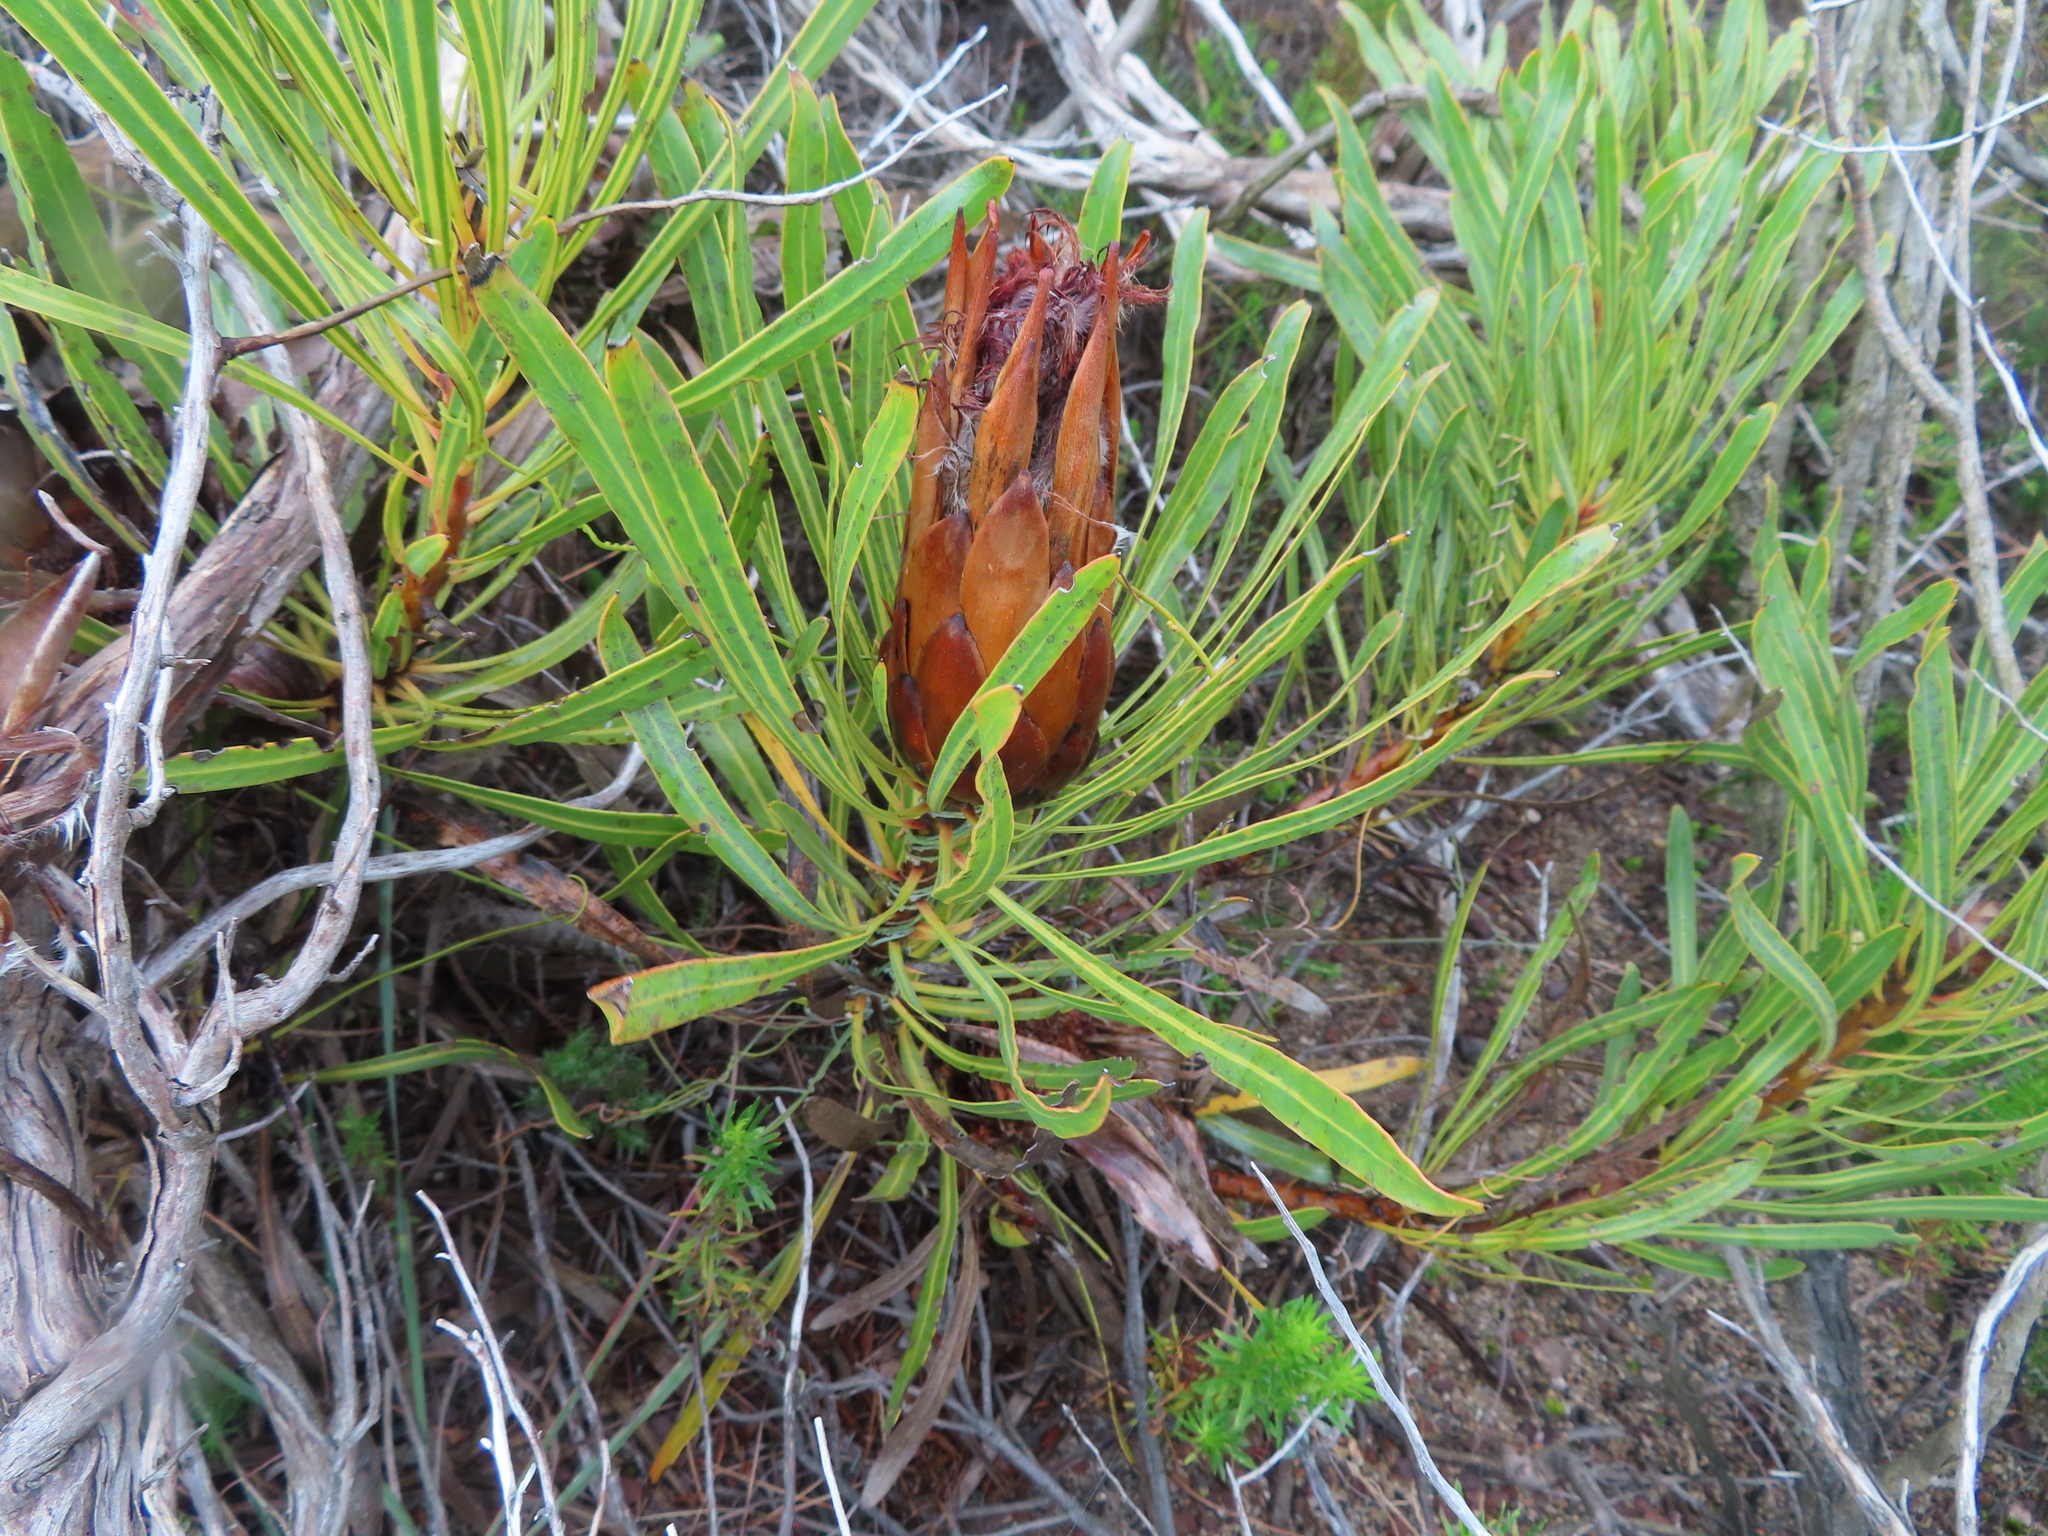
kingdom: Plantae
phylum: Tracheophyta
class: Magnoliopsida
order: Proteales
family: Proteaceae
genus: Protea
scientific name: Protea longifolia
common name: Long-leaf sugarbush
